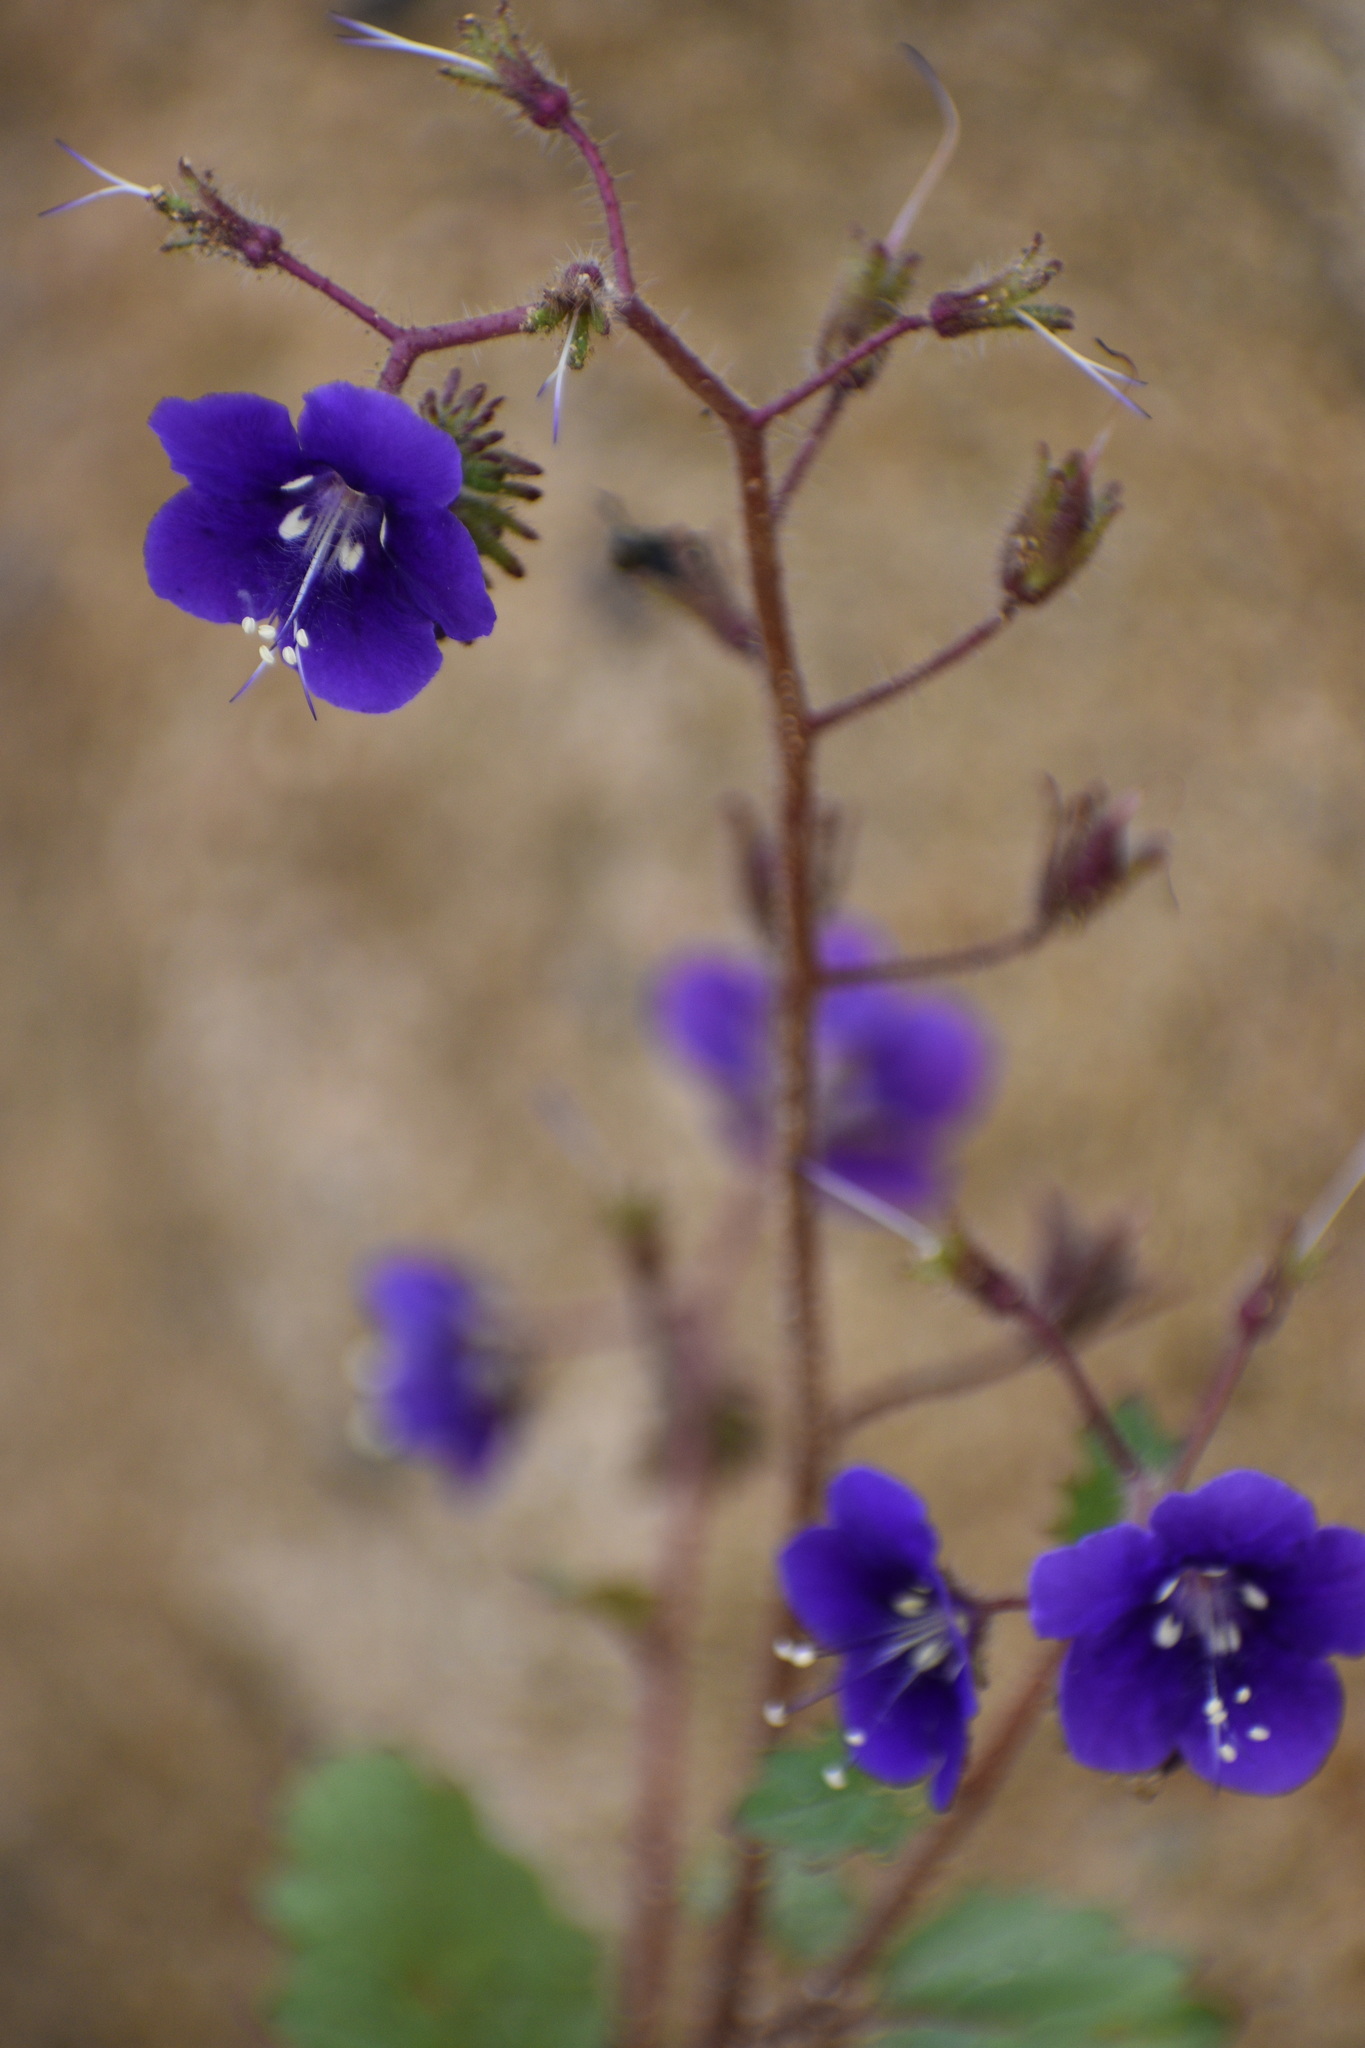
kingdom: Plantae
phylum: Tracheophyta
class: Magnoliopsida
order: Boraginales
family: Hydrophyllaceae
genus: Phacelia
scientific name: Phacelia parryi
